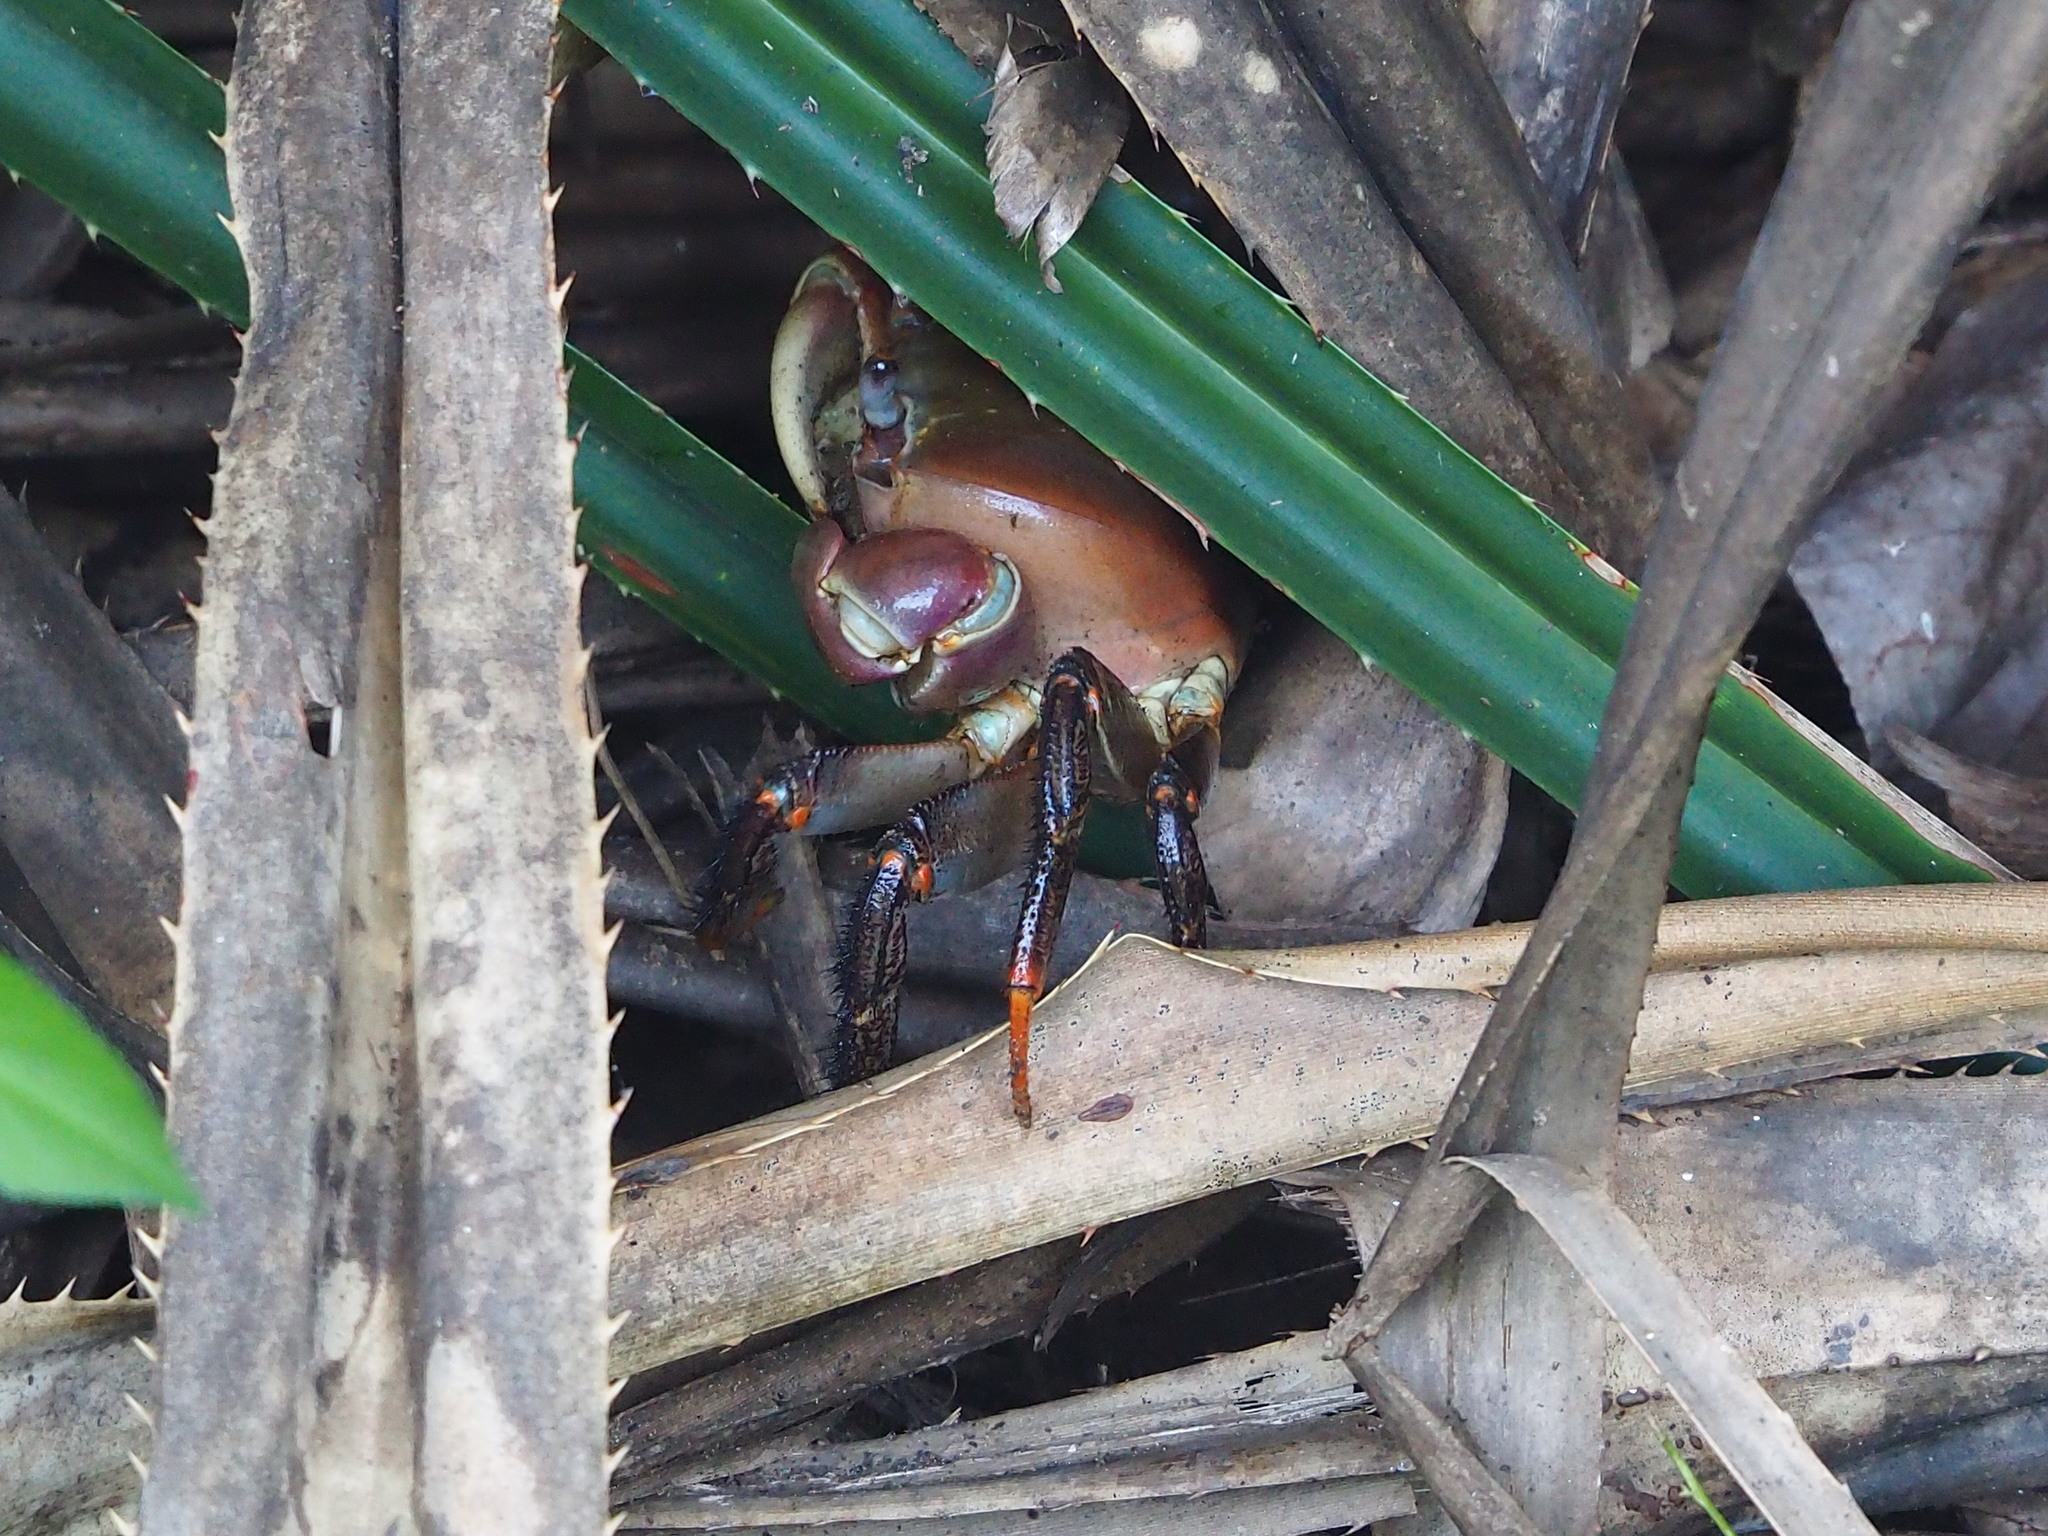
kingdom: Animalia
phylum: Arthropoda
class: Malacostraca
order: Decapoda
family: Gecarcinidae
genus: Cardisoma
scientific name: Cardisoma carnifex
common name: Brown land crab
